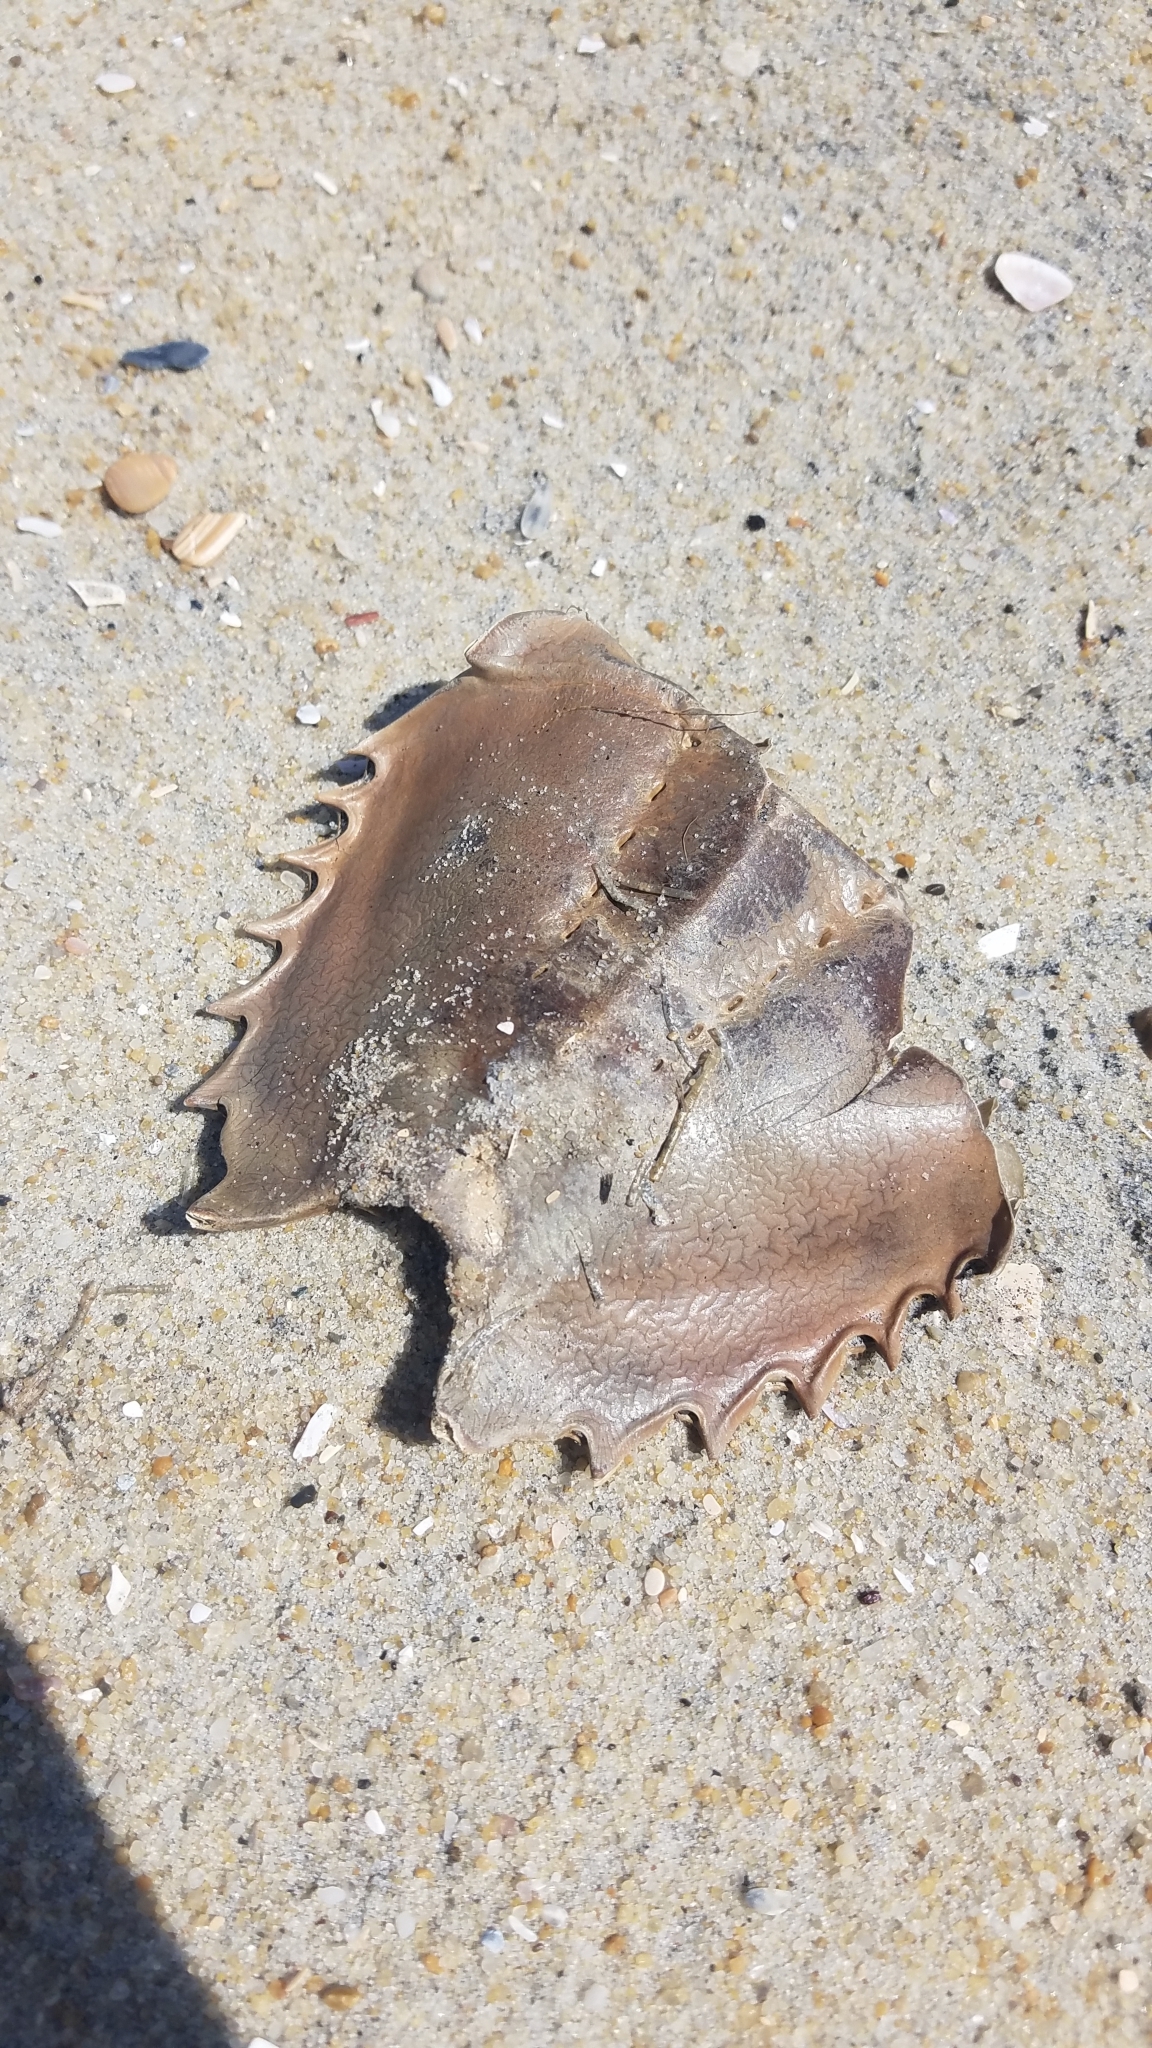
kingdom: Animalia
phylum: Arthropoda
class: Merostomata
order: Xiphosurida
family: Limulidae
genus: Limulus
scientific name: Limulus polyphemus
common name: Horseshoe crab
